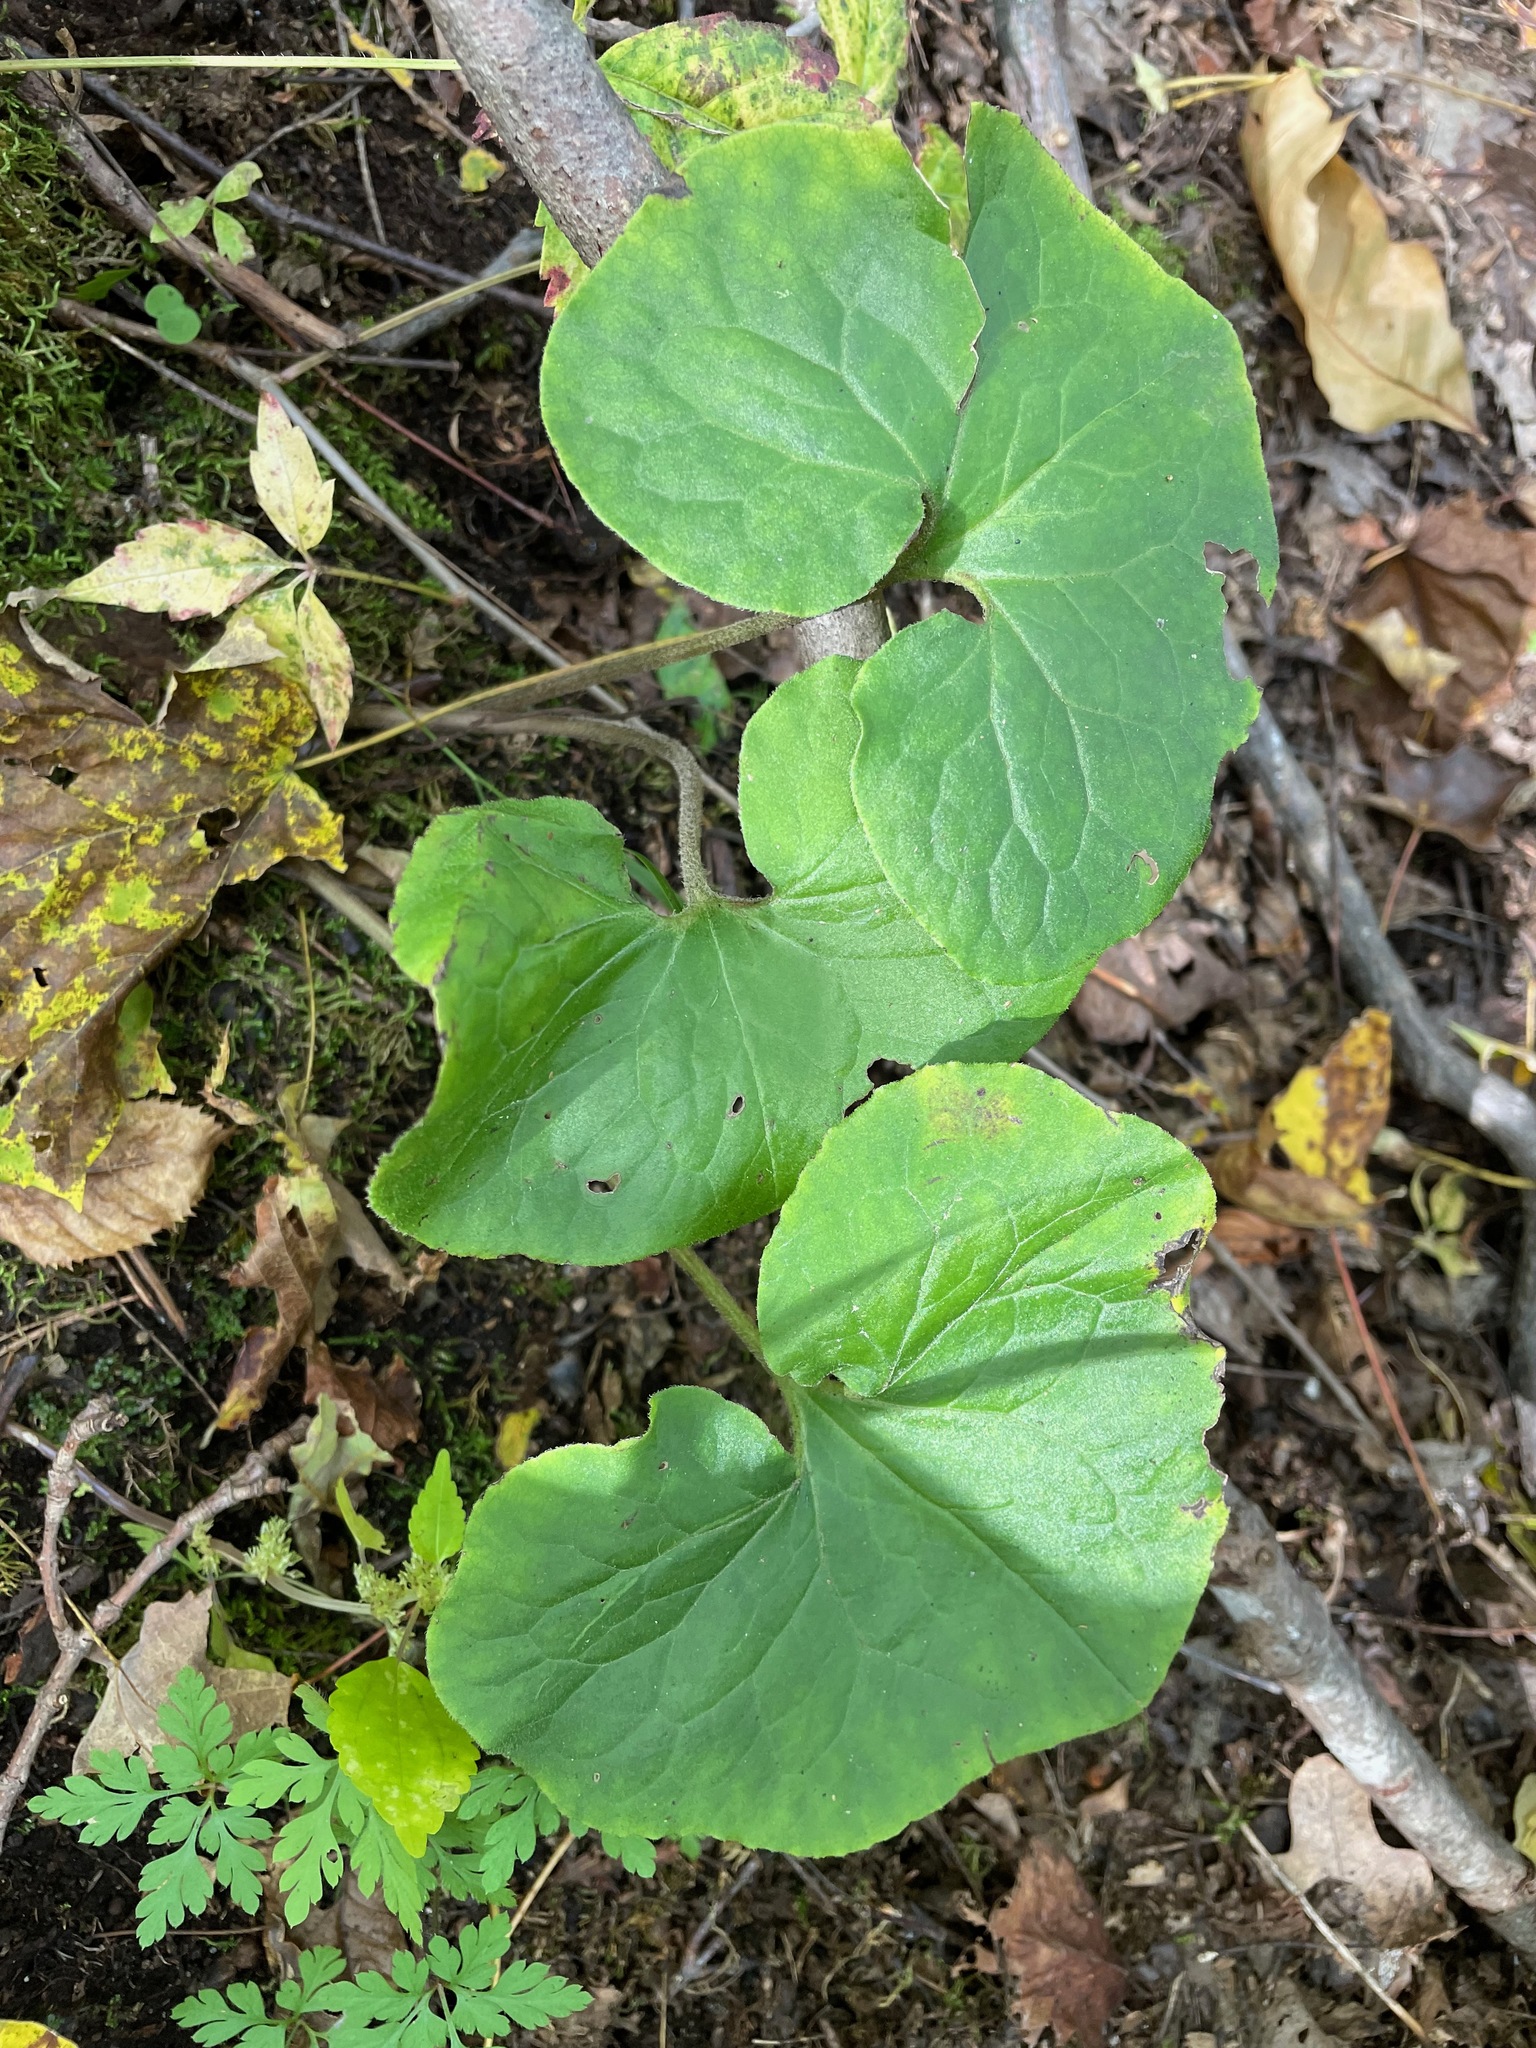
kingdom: Plantae
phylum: Tracheophyta
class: Magnoliopsida
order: Piperales
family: Aristolochiaceae
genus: Asarum
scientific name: Asarum canadense
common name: Wild ginger
